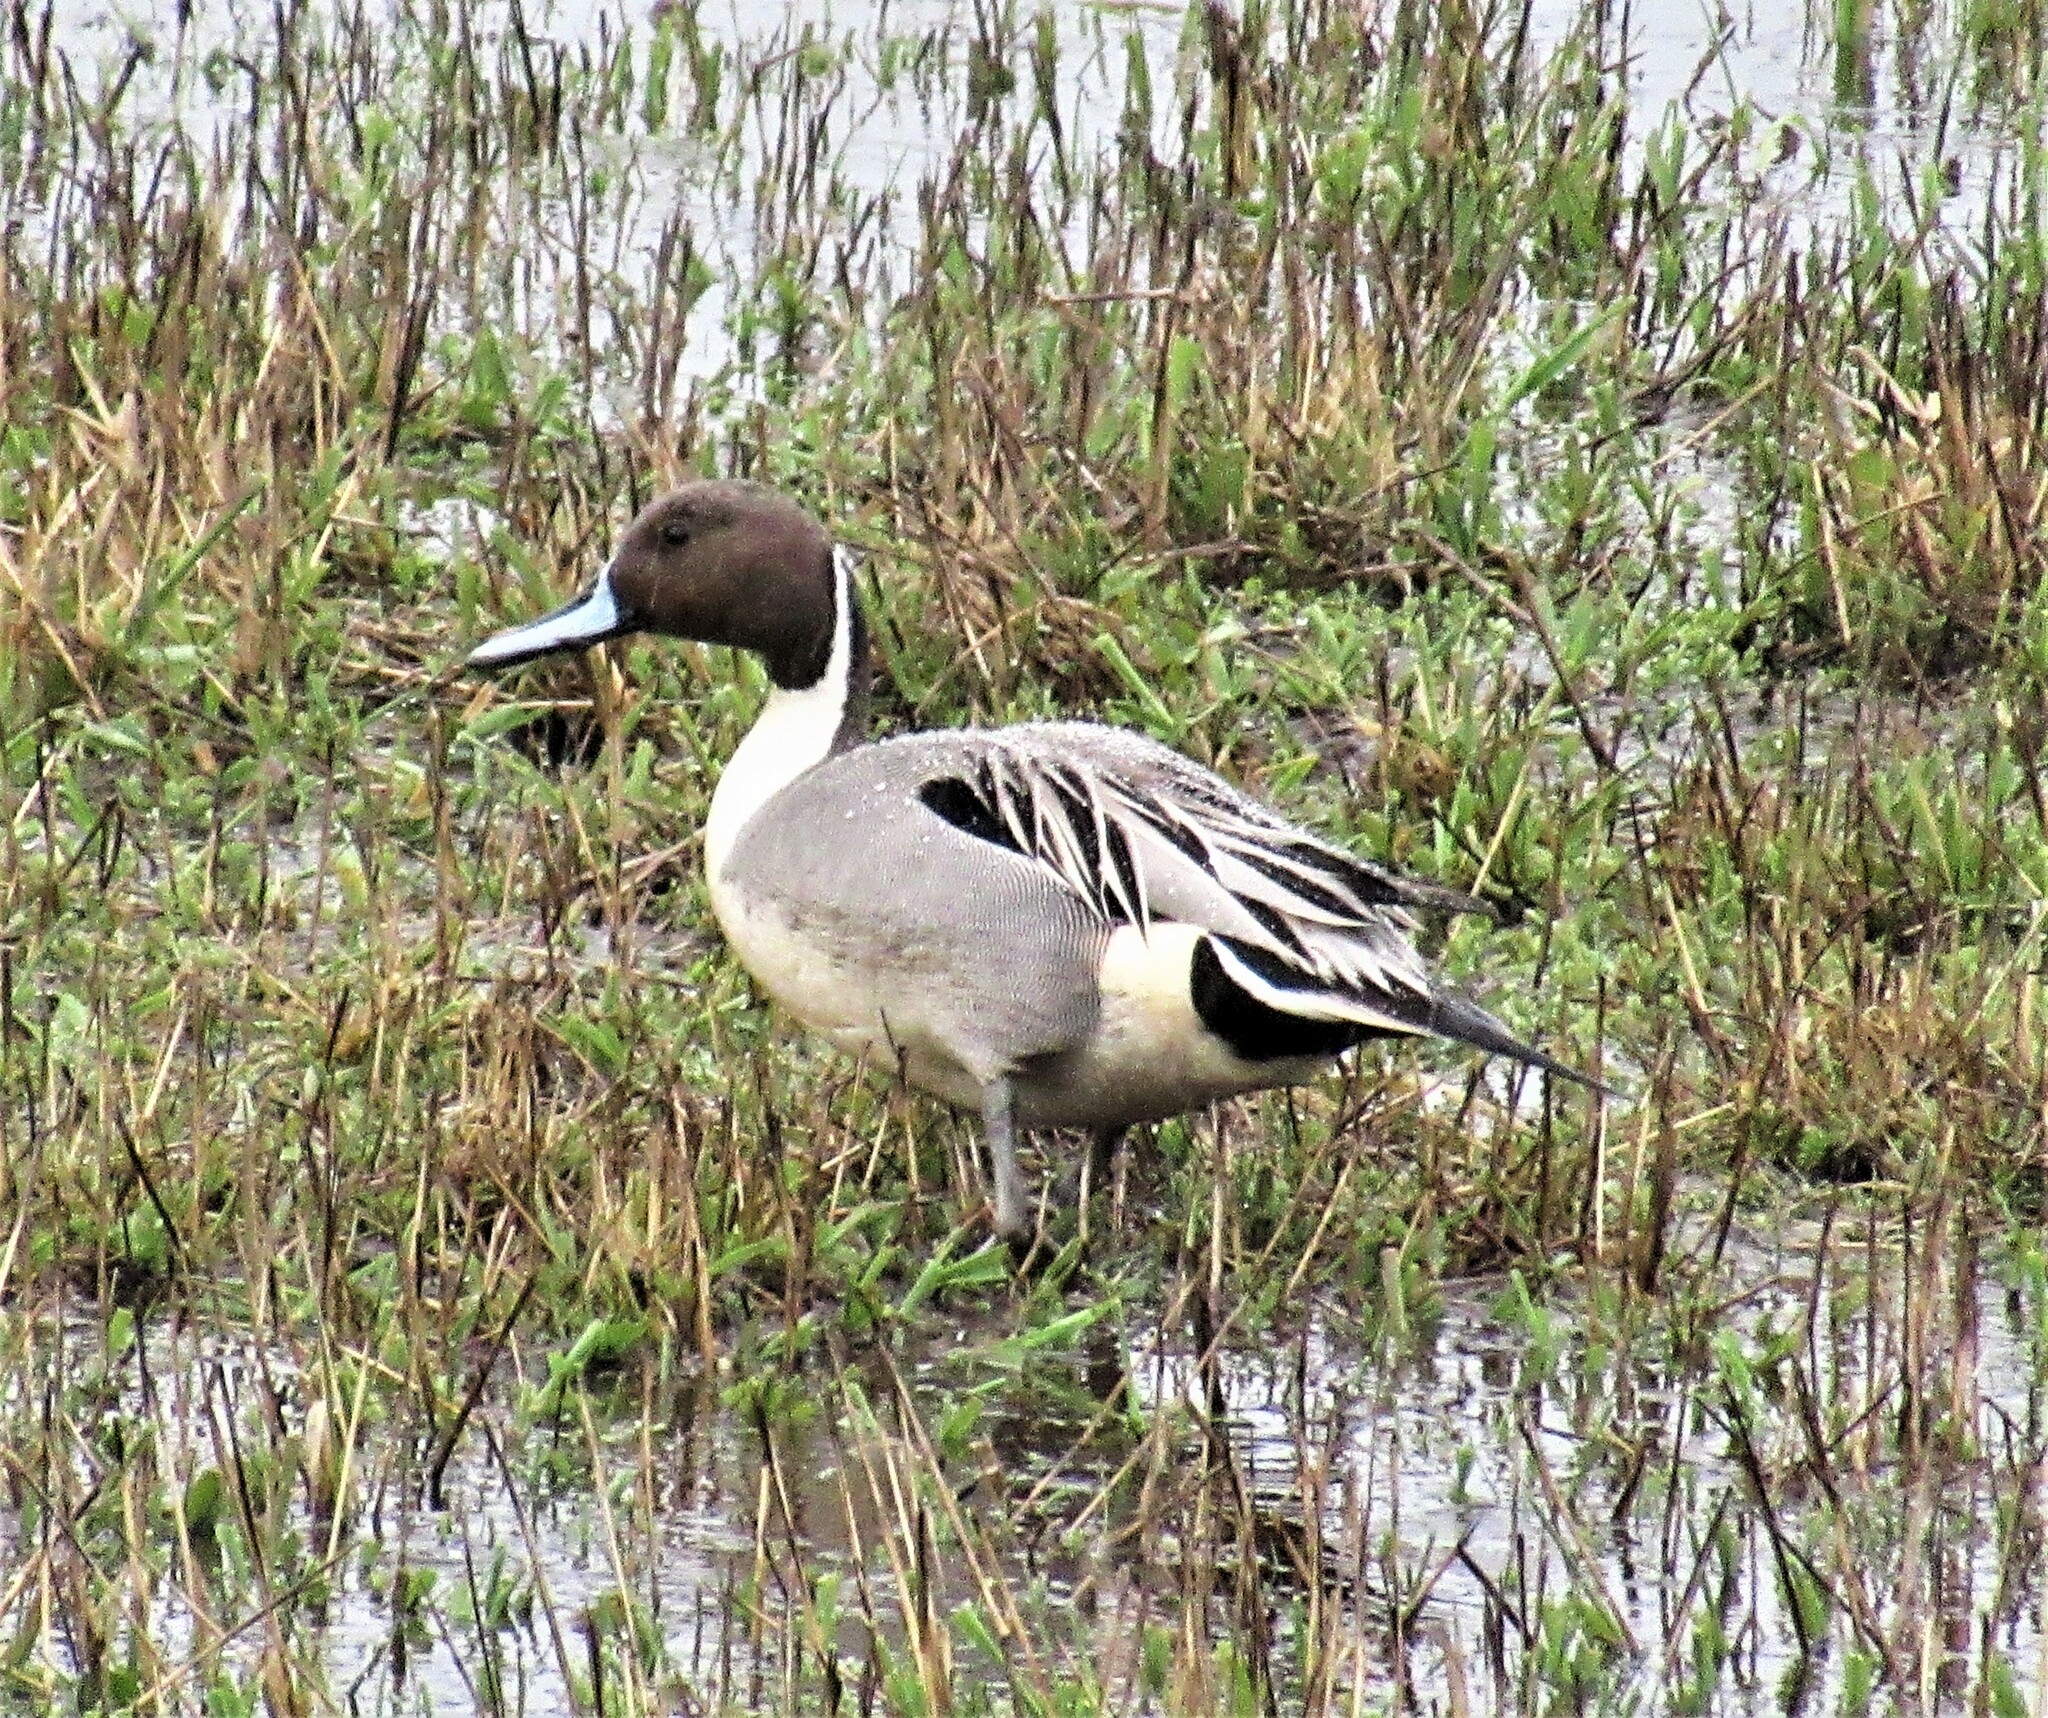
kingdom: Animalia
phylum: Chordata
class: Aves
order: Anseriformes
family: Anatidae
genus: Anas
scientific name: Anas acuta
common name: Northern pintail
